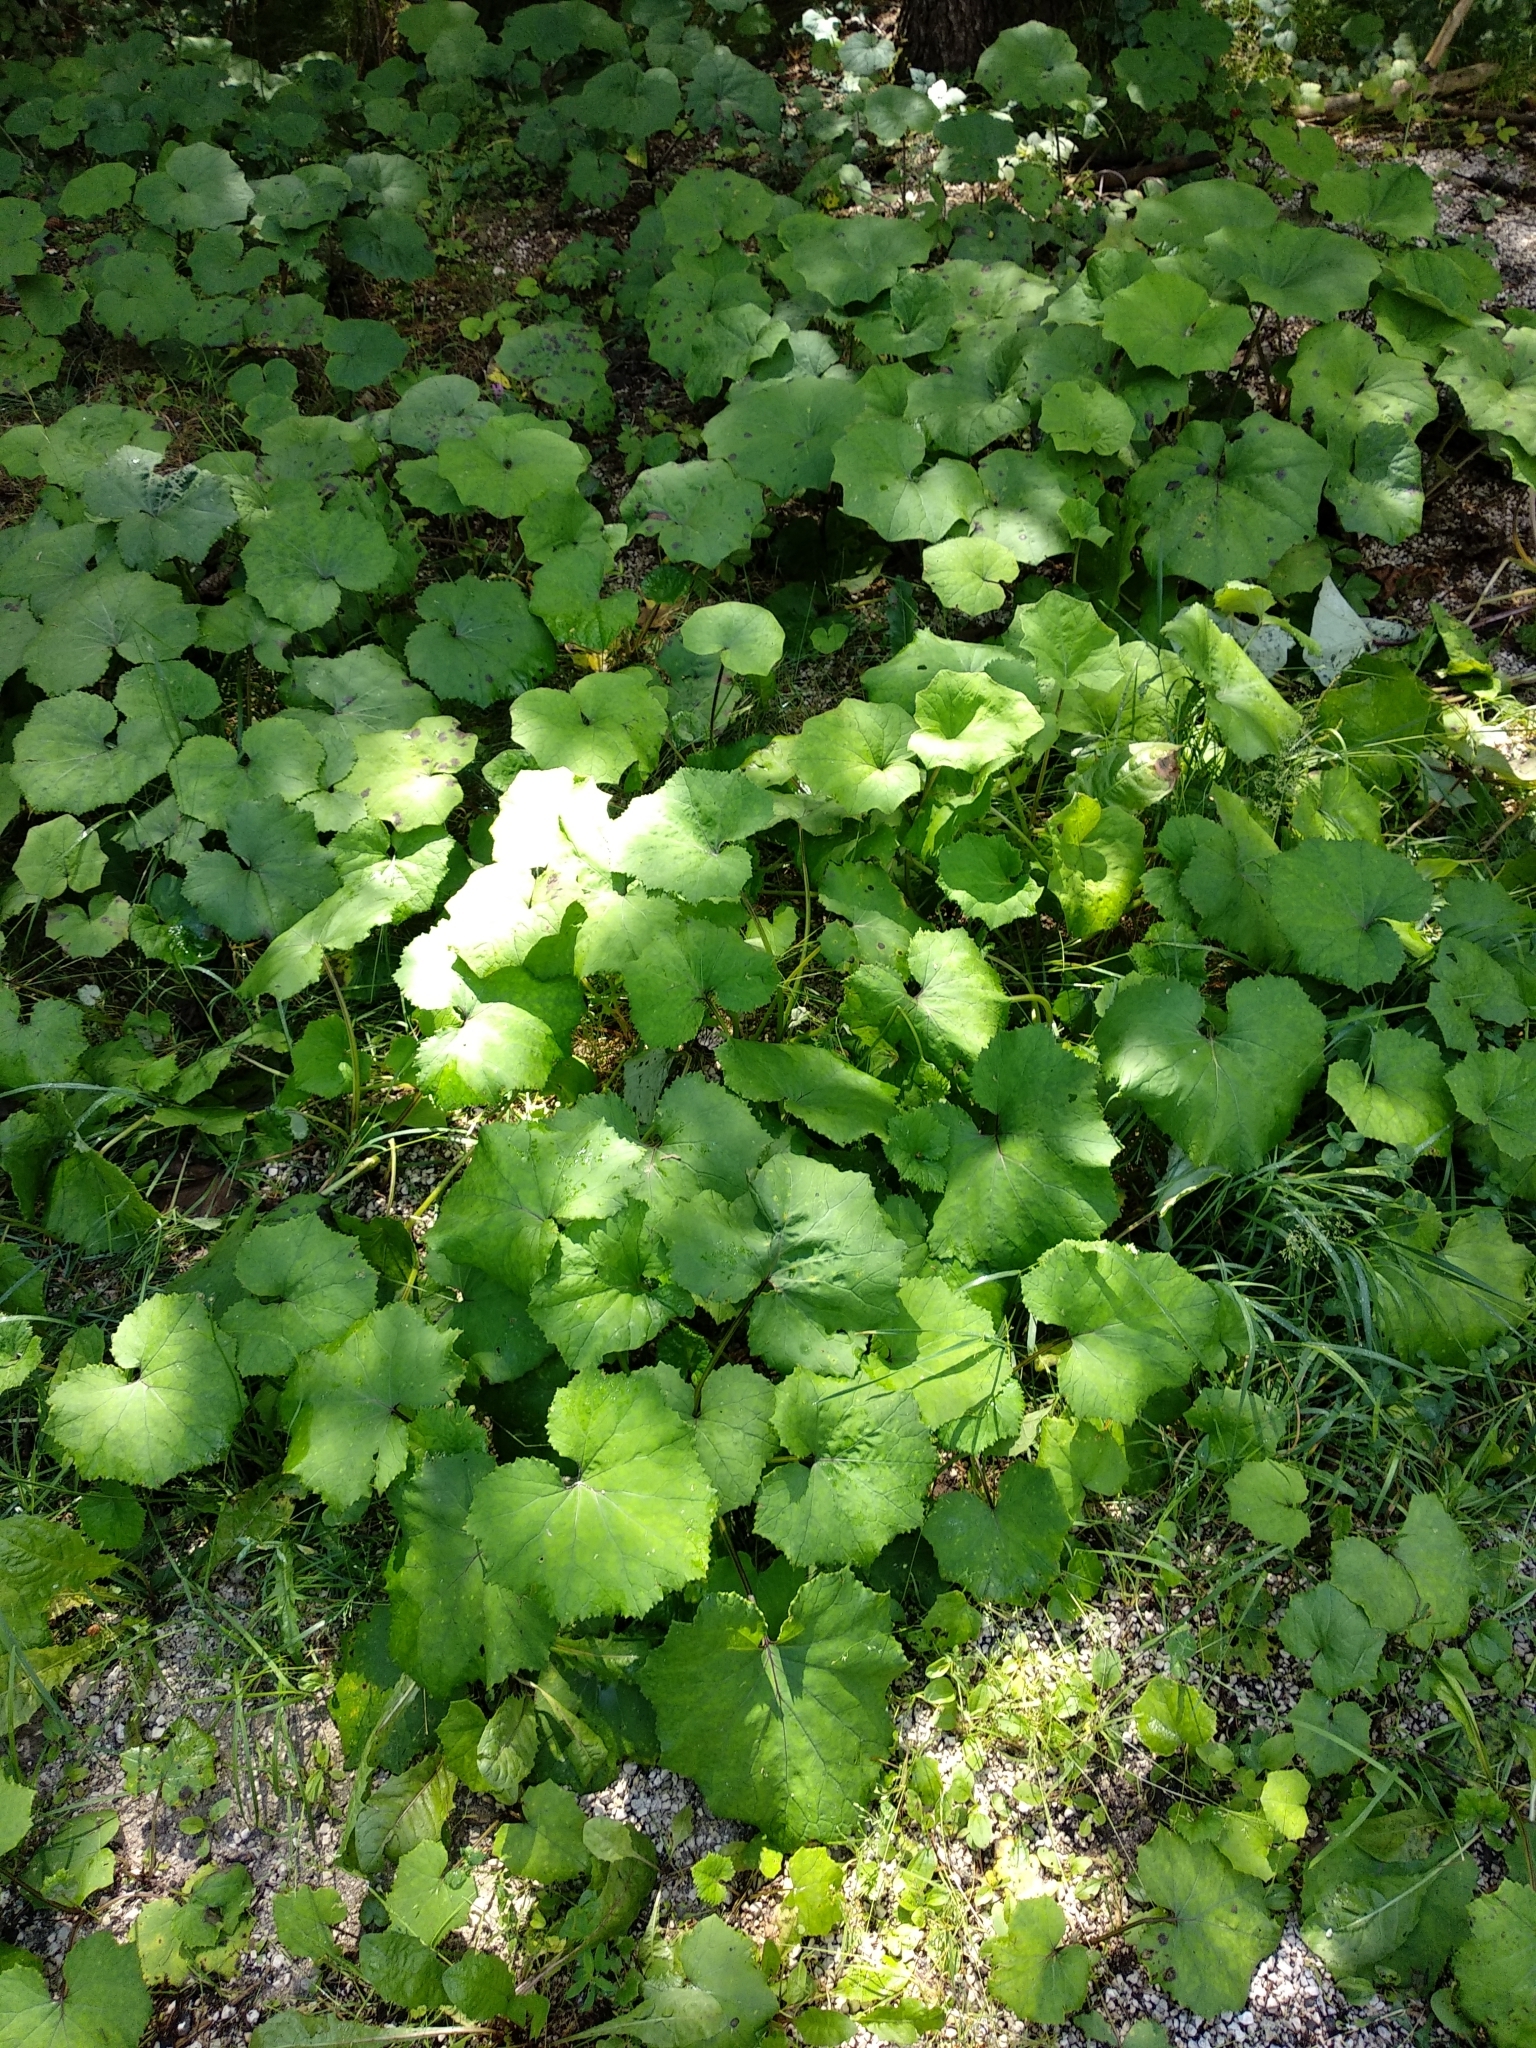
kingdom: Plantae
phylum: Tracheophyta
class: Magnoliopsida
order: Asterales
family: Asteraceae
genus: Tussilago
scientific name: Tussilago farfara
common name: Coltsfoot
